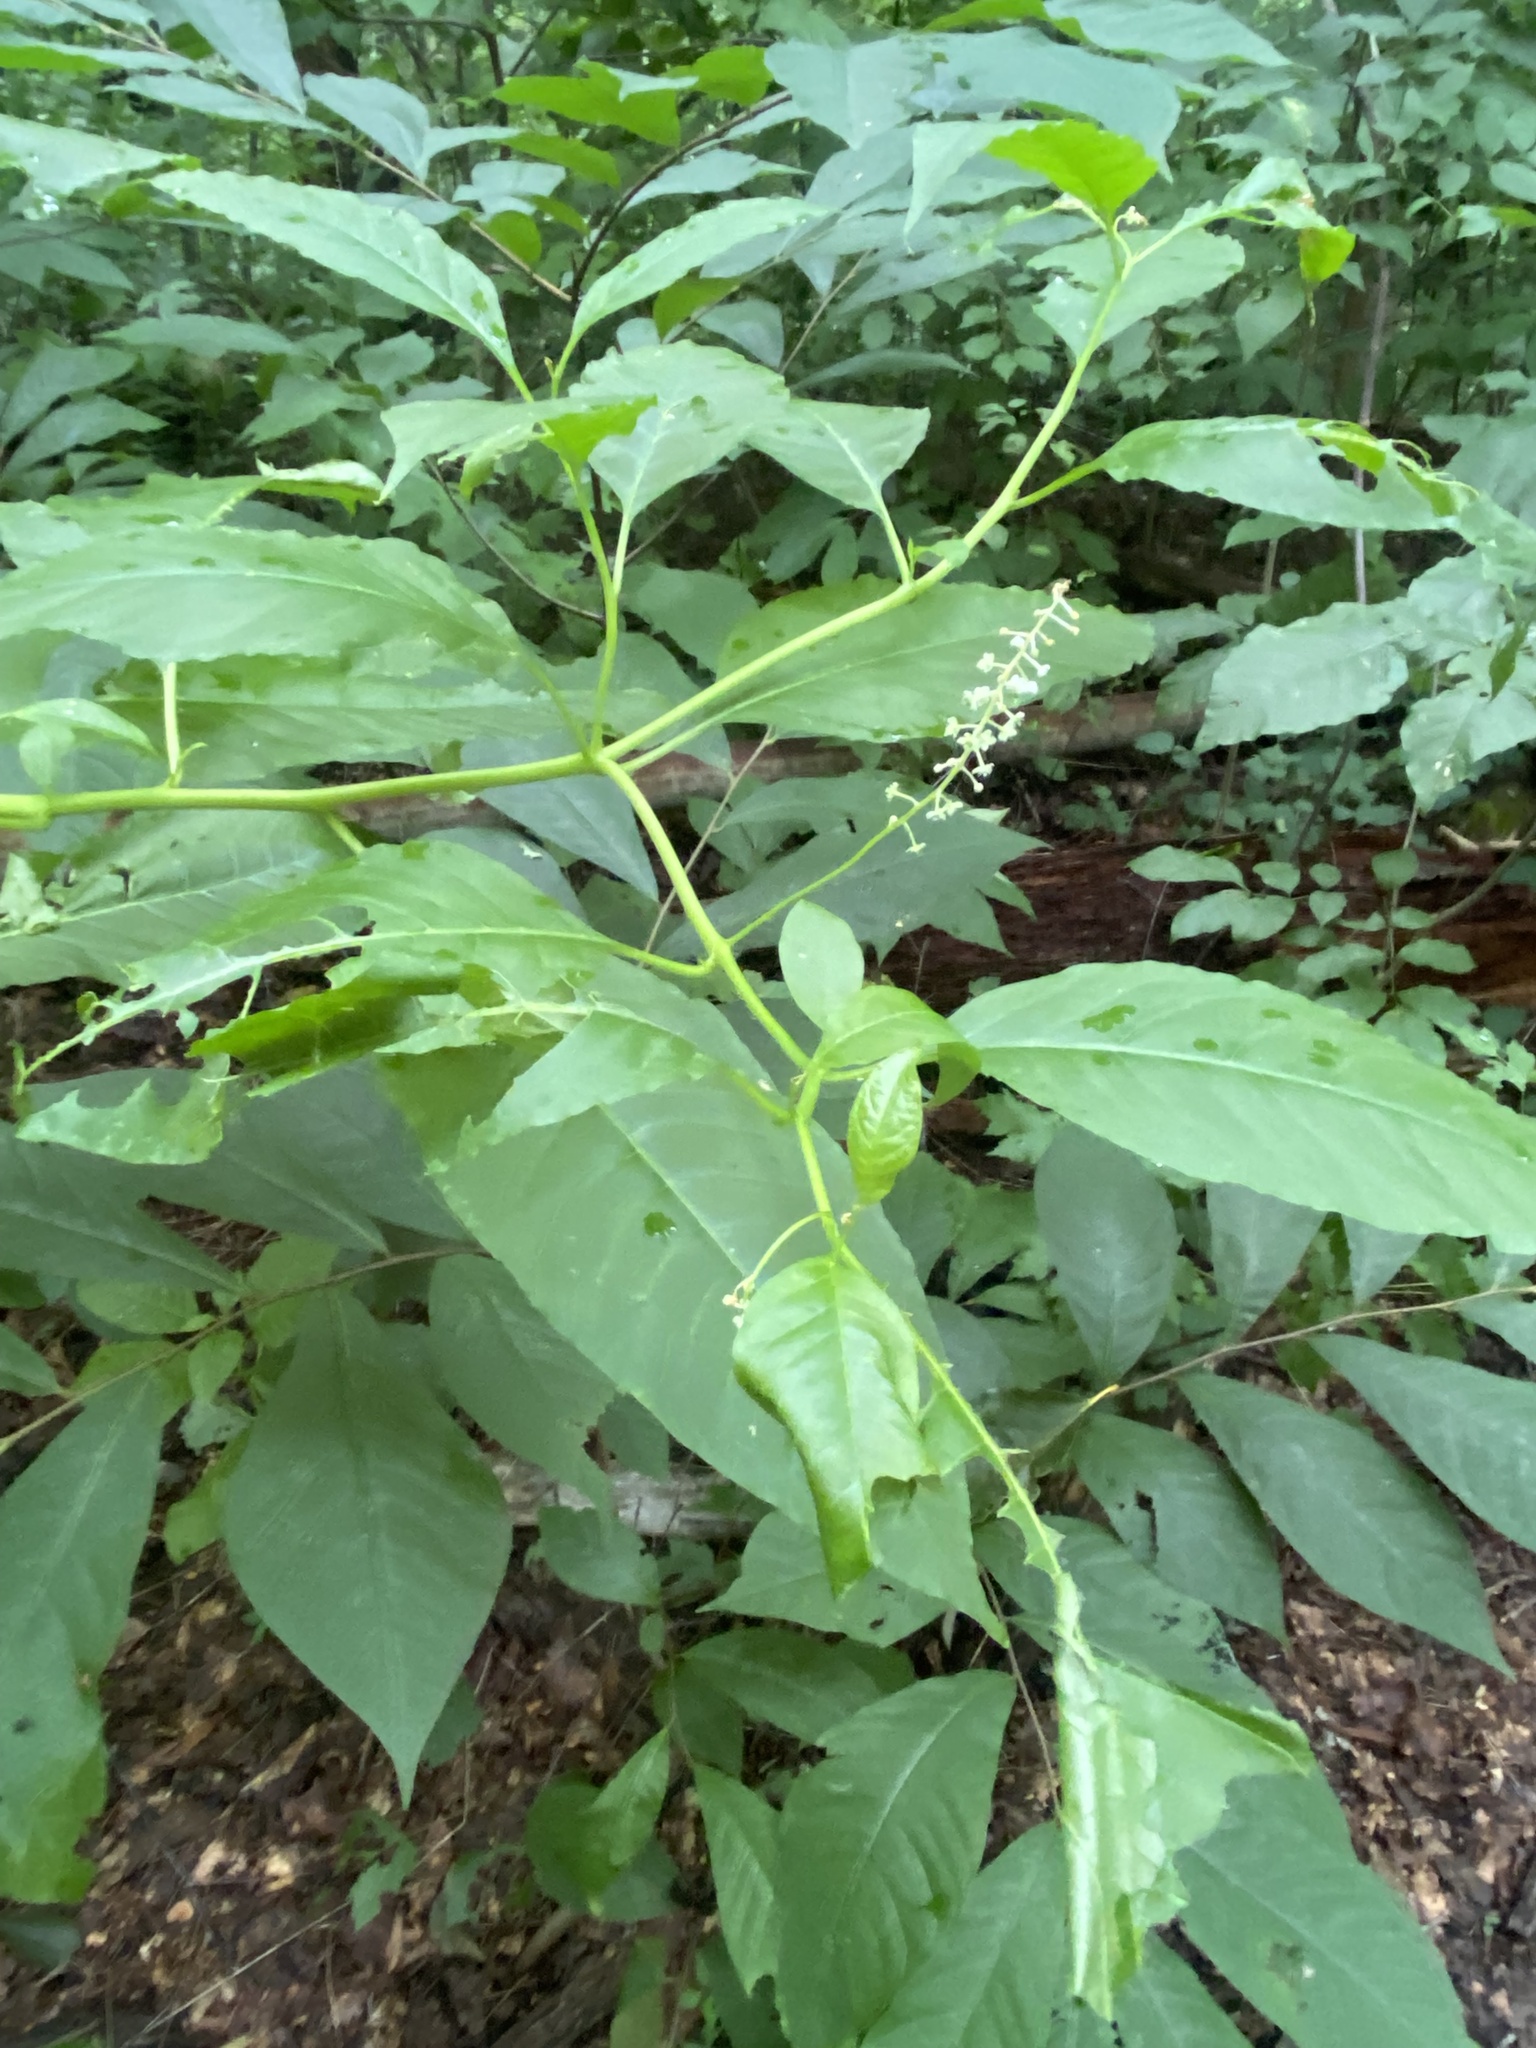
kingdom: Plantae
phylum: Tracheophyta
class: Magnoliopsida
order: Caryophyllales
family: Phytolaccaceae
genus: Phytolacca
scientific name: Phytolacca americana
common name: American pokeweed
